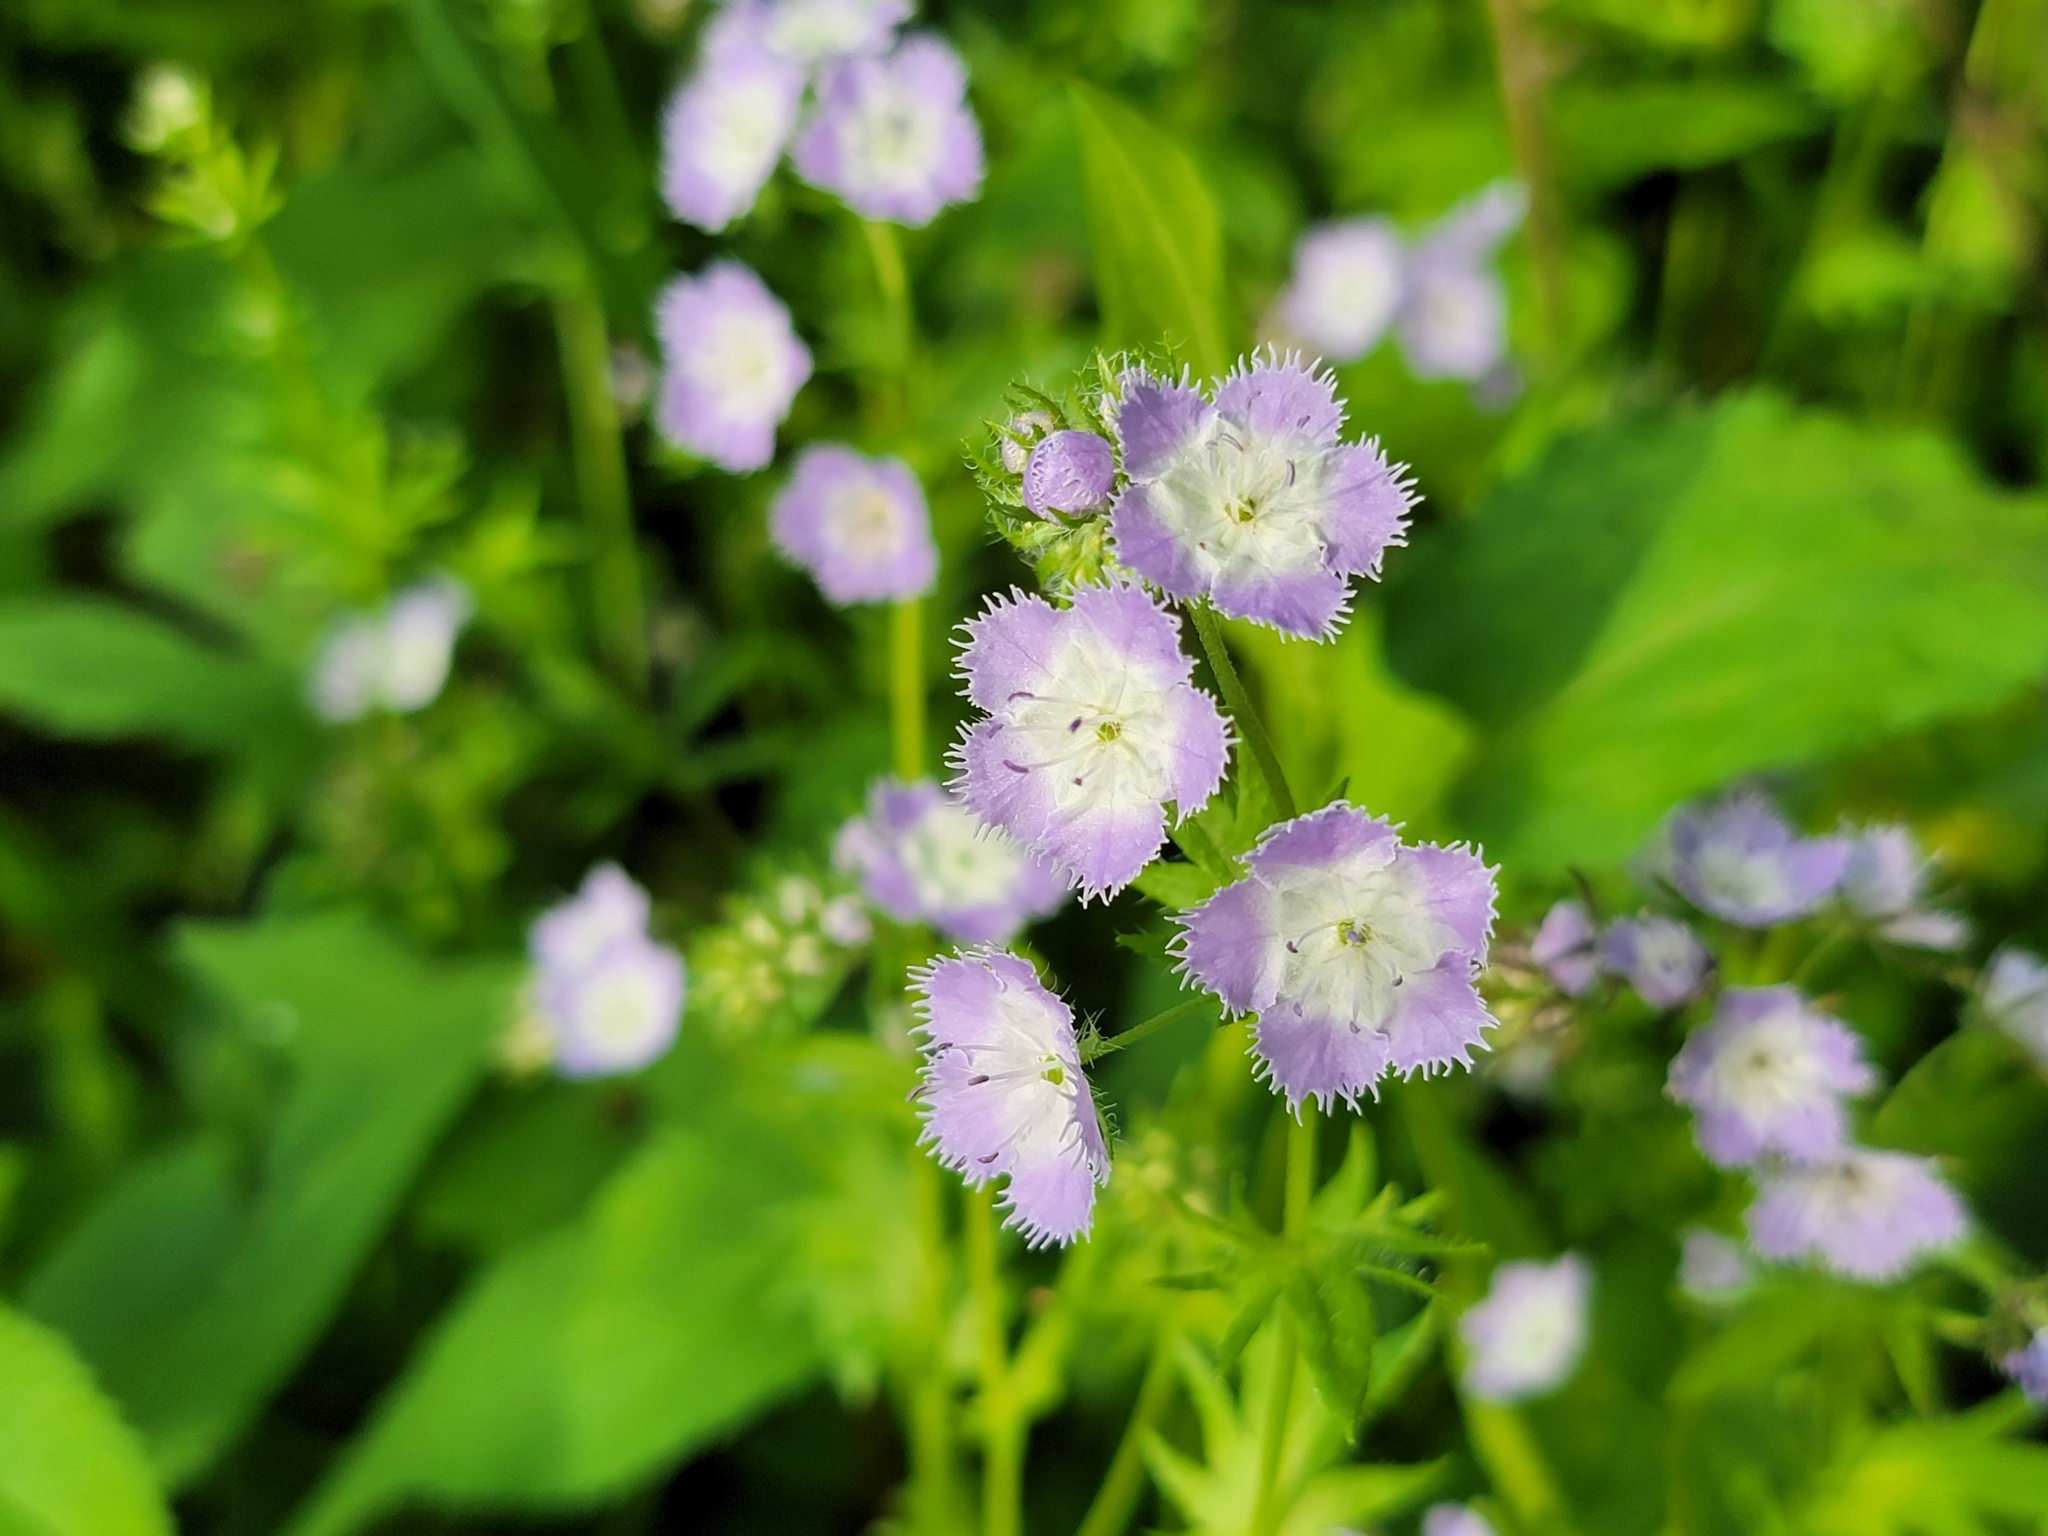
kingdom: Plantae
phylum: Tracheophyta
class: Magnoliopsida
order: Boraginales
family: Hydrophyllaceae
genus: Phacelia
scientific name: Phacelia purshii
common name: Miami-mist
